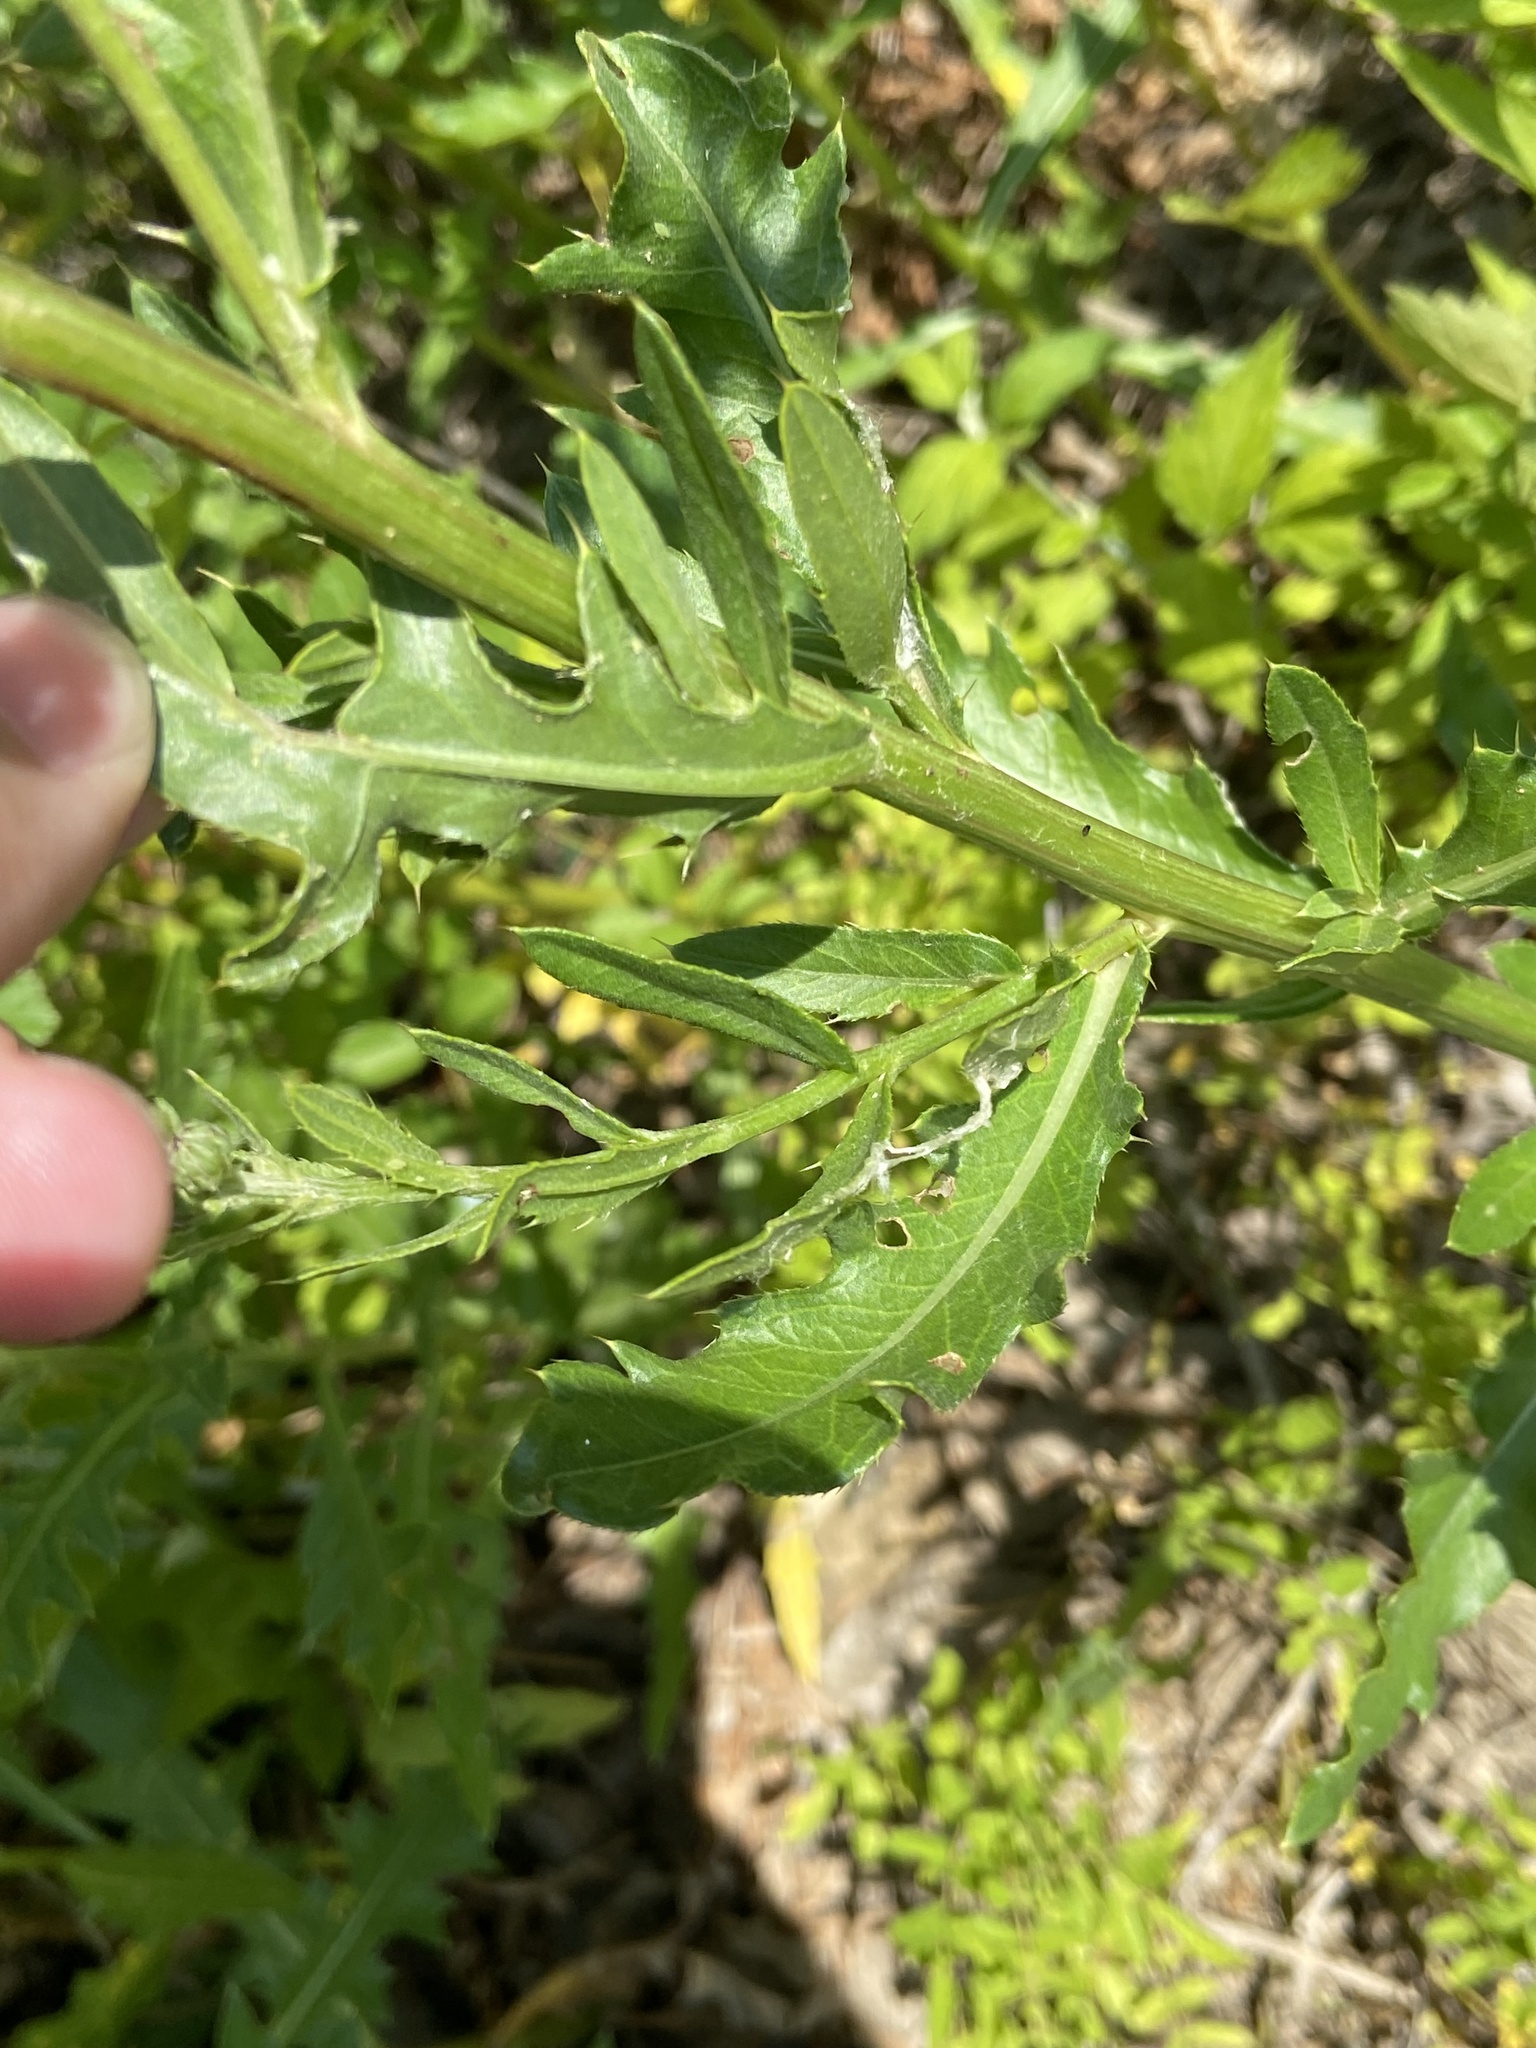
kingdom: Plantae
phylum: Tracheophyta
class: Magnoliopsida
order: Asterales
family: Asteraceae
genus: Cirsium
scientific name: Cirsium arvense
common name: Creeping thistle
